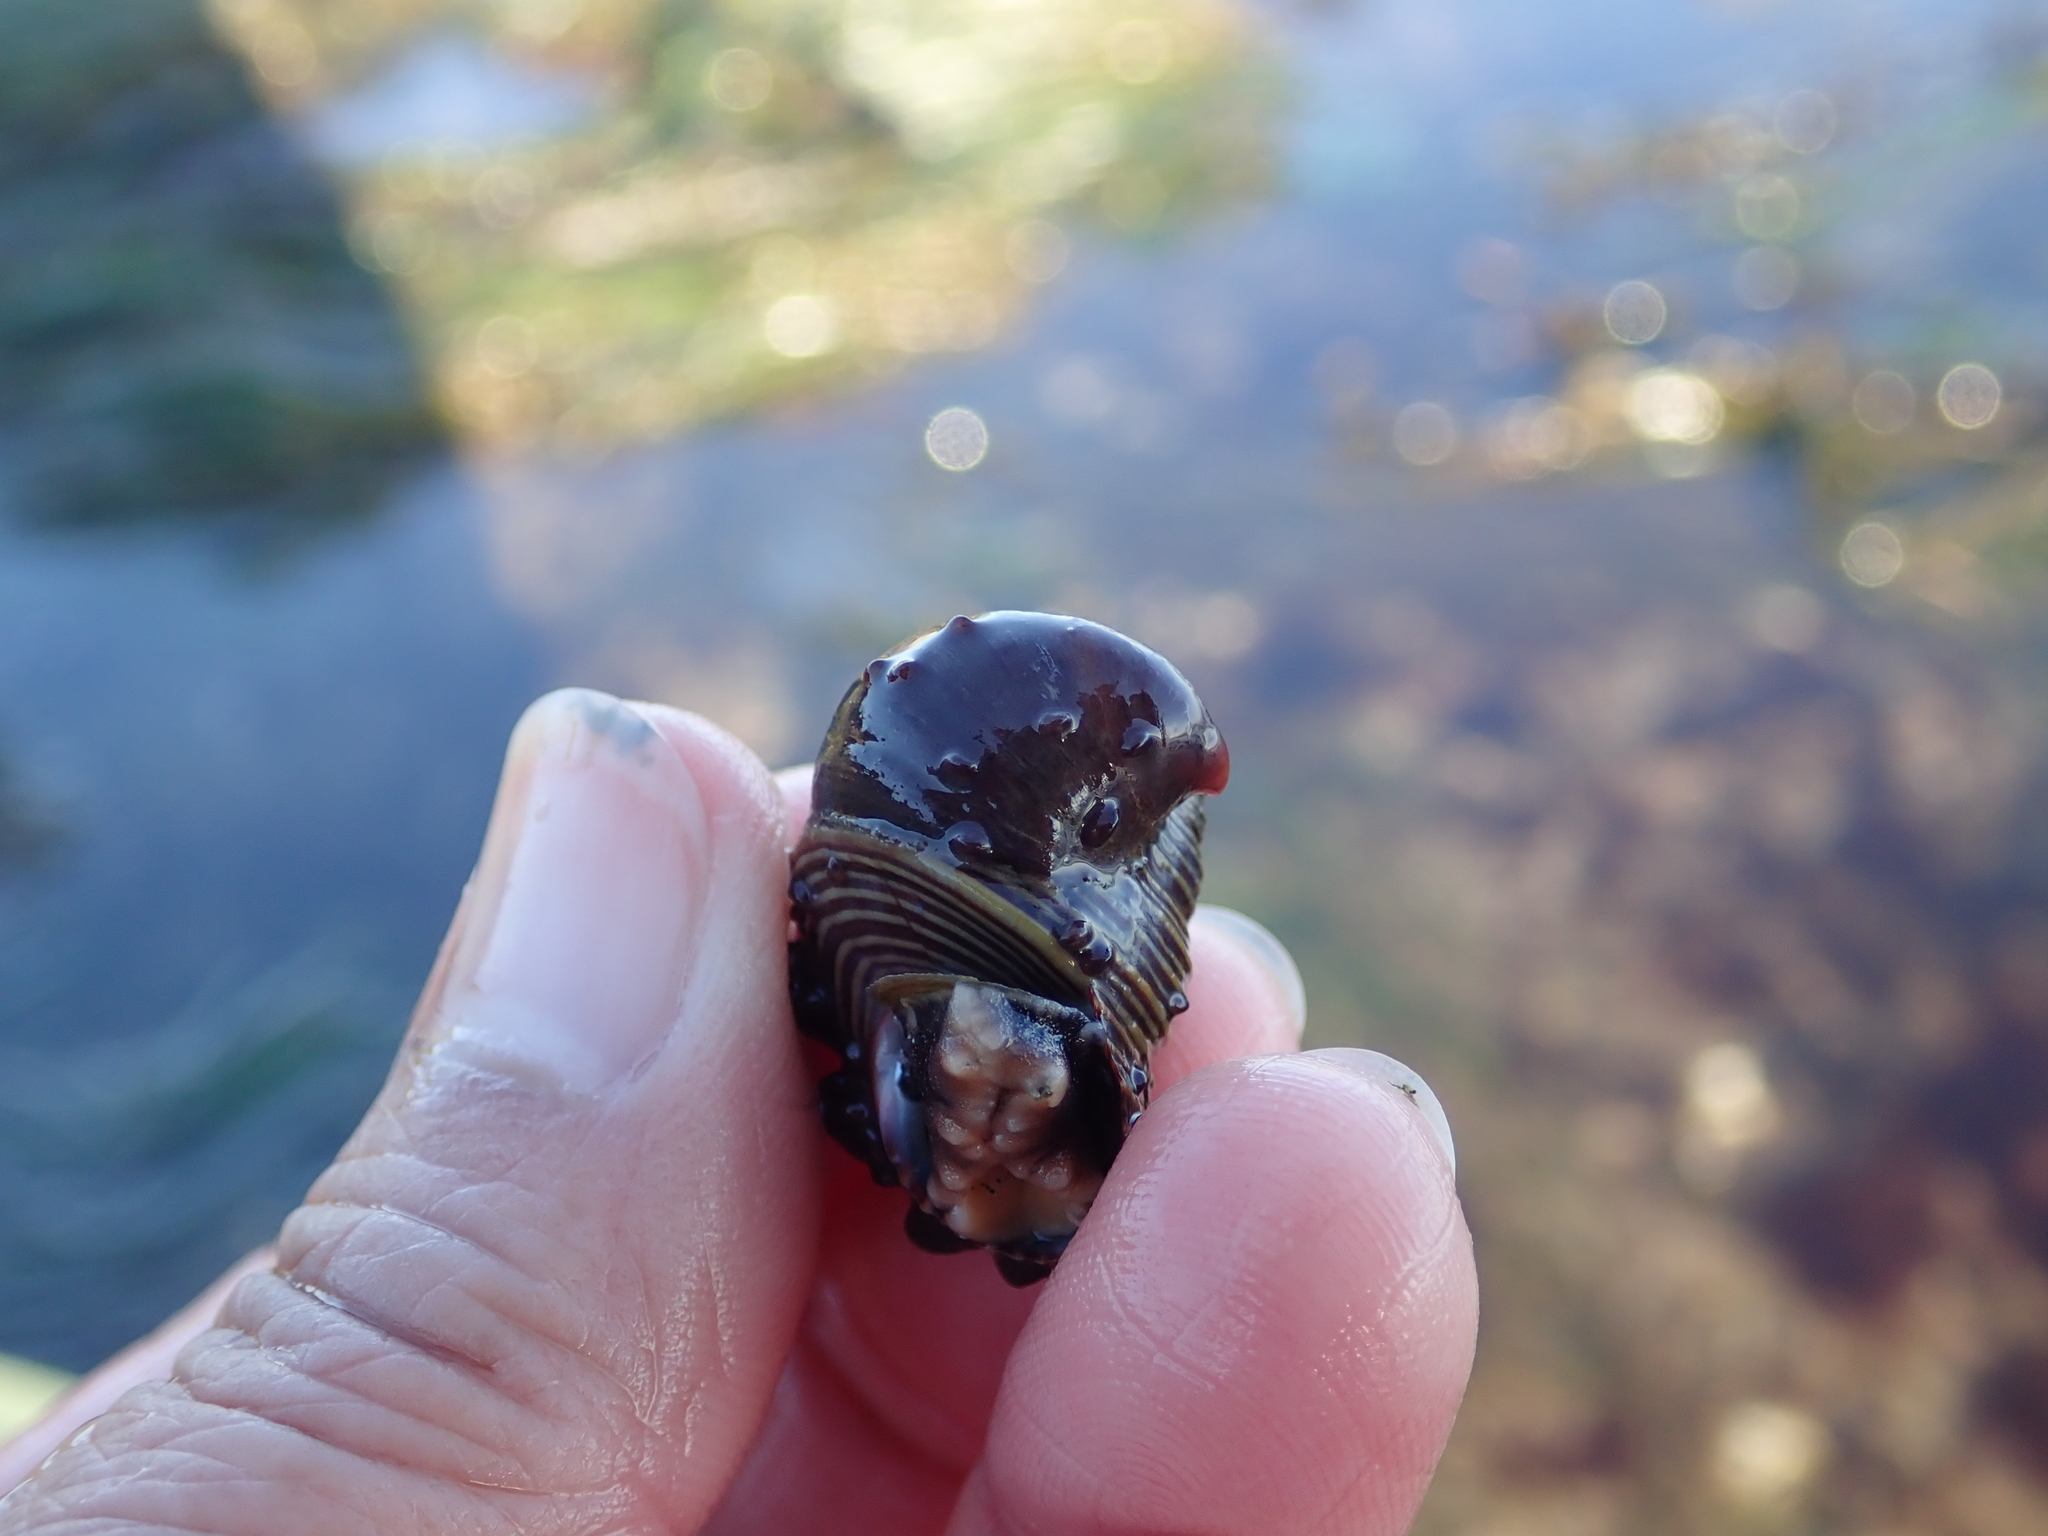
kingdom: Animalia
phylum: Mollusca
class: Gastropoda
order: Littorinimorpha
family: Calyptraeidae
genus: Crepidula
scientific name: Crepidula adunca
